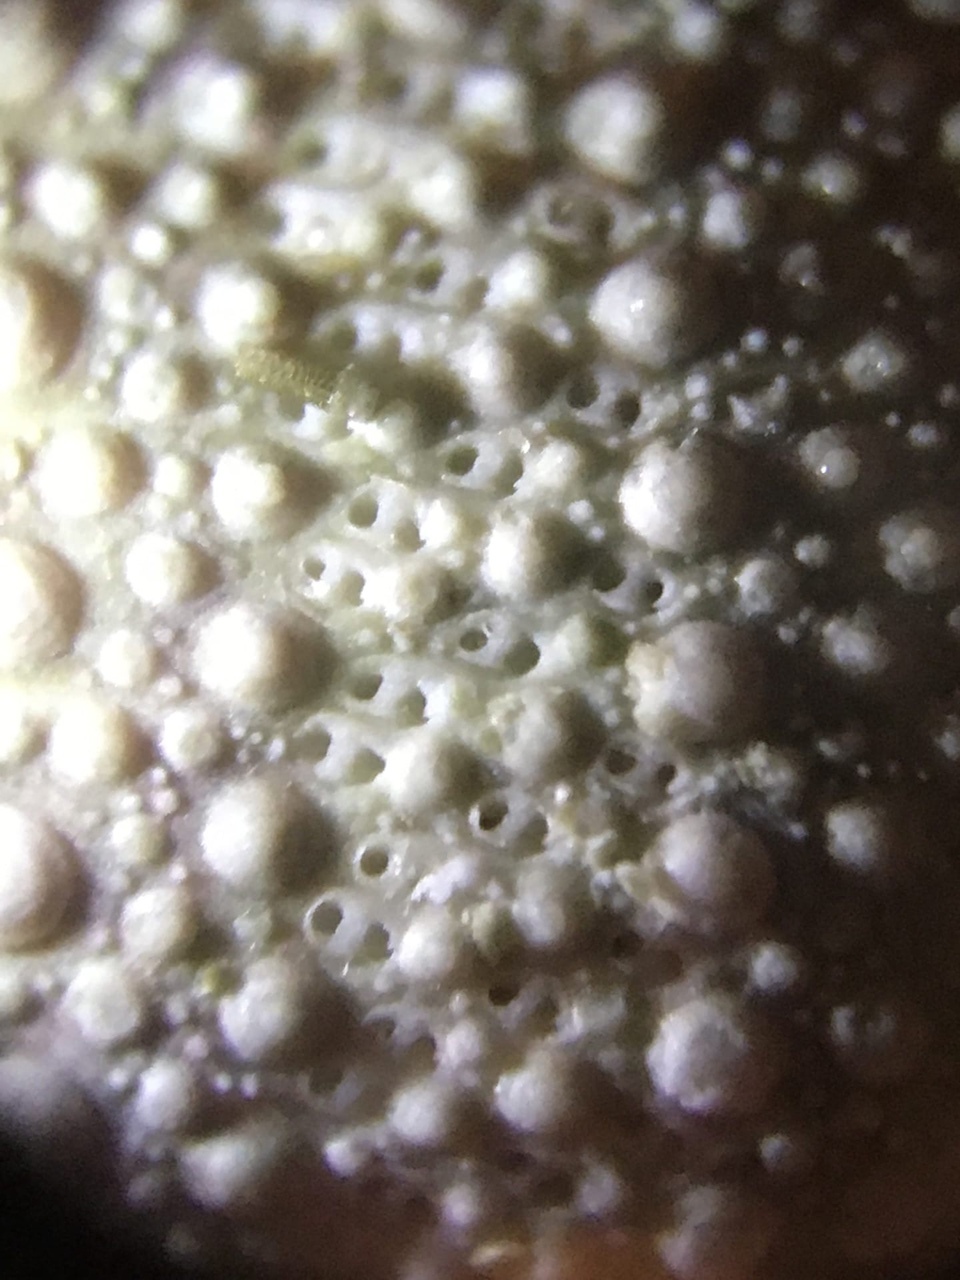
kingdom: Animalia
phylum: Echinodermata
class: Echinoidea
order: Camarodonta
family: Strongylocentrotidae
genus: Hemicentrotus
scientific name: Hemicentrotus pulcherrimus
